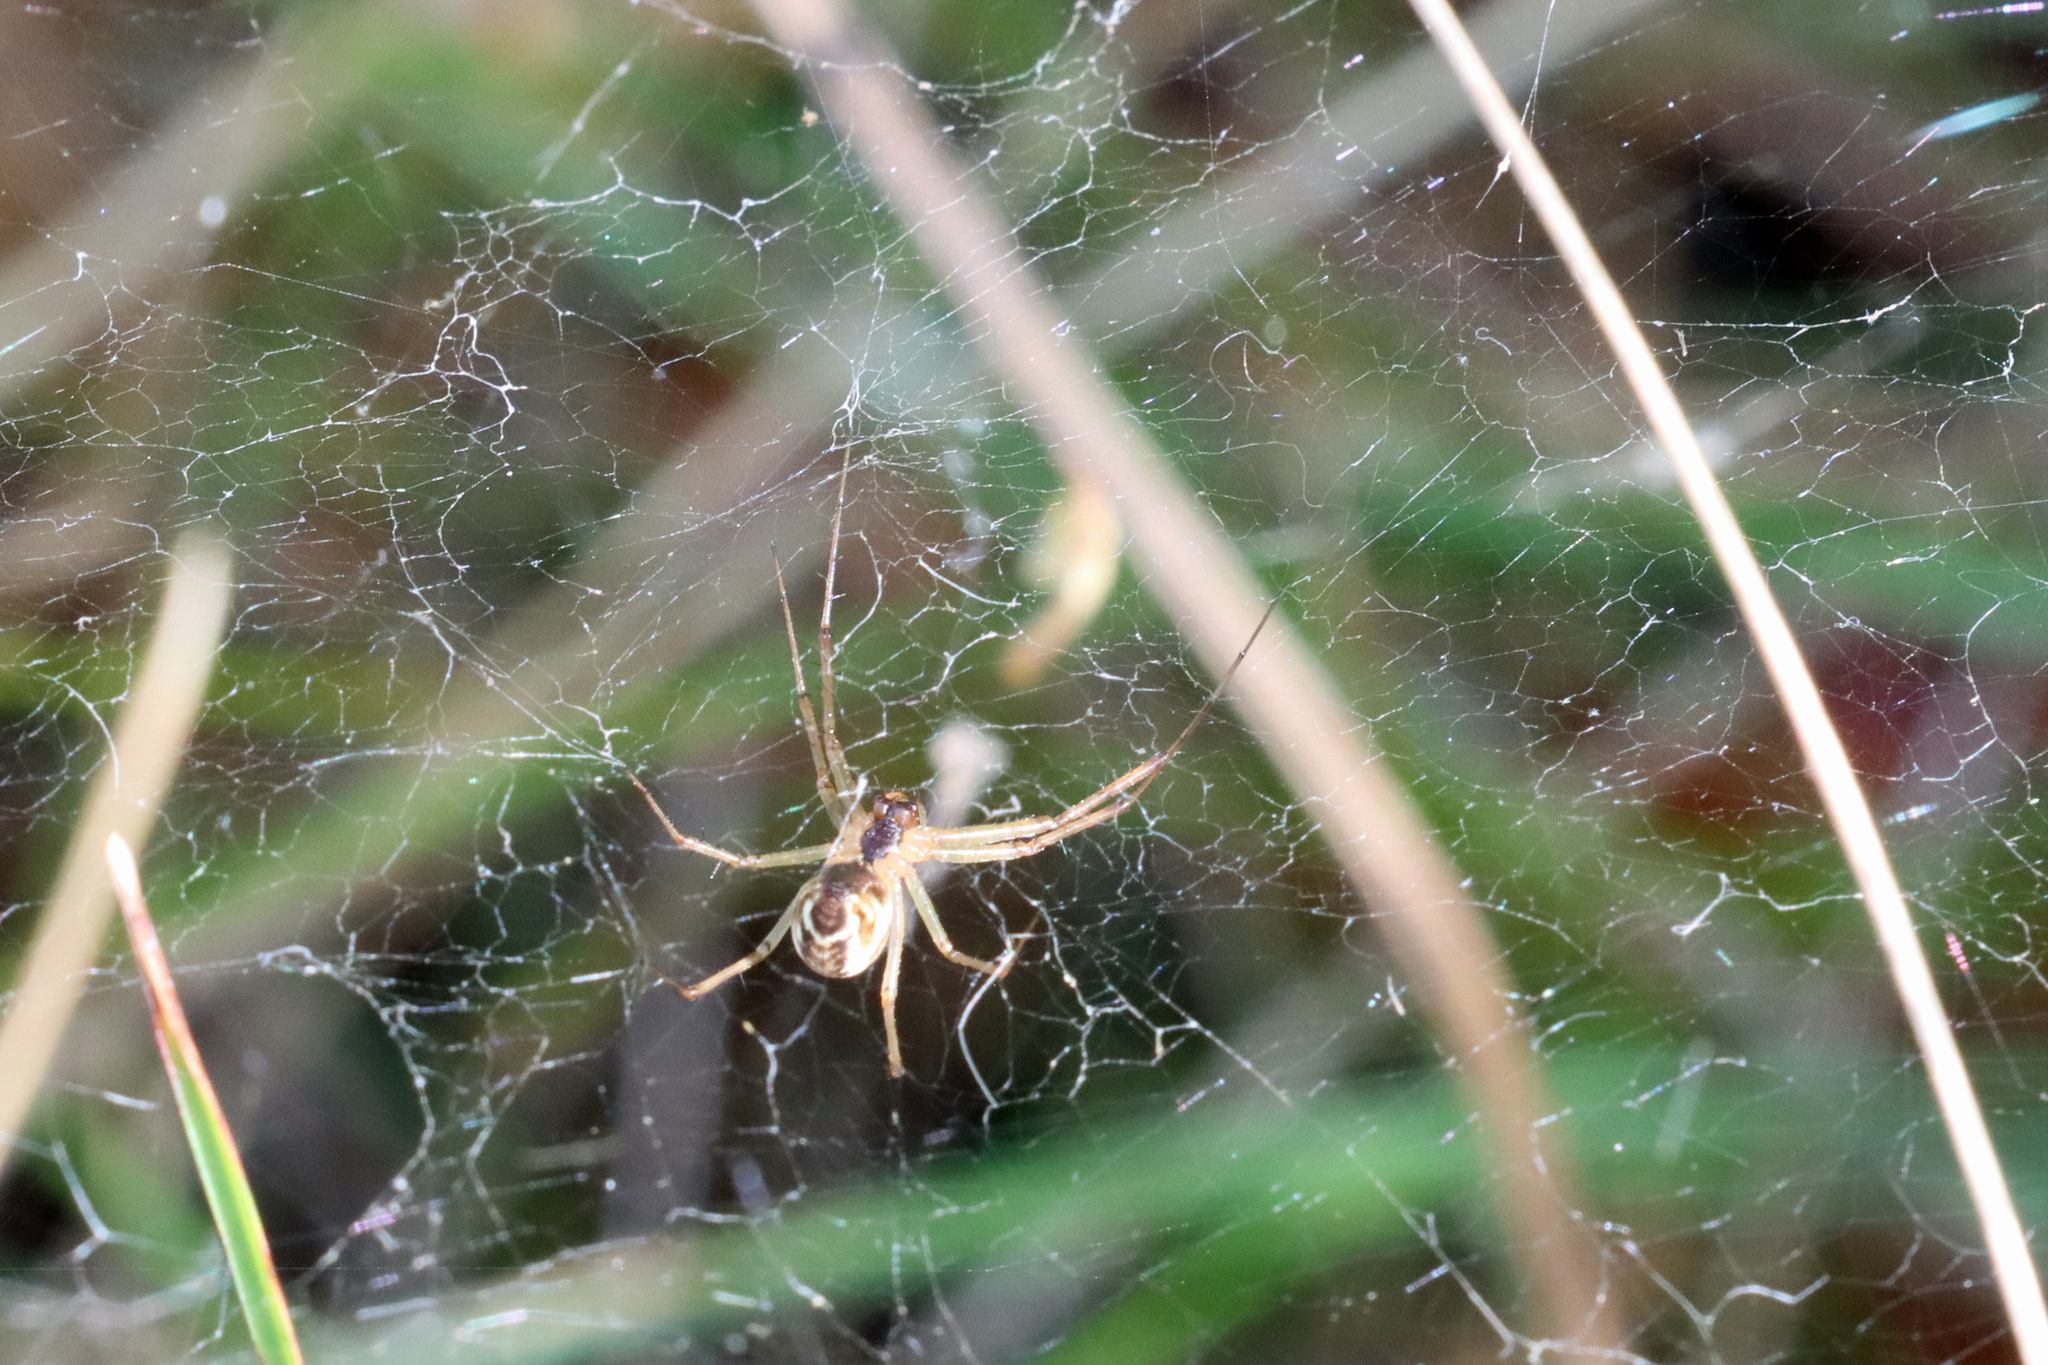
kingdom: Animalia
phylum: Arthropoda
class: Arachnida
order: Araneae
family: Linyphiidae
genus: Linyphia
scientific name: Linyphia triangularis
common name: Money spider
